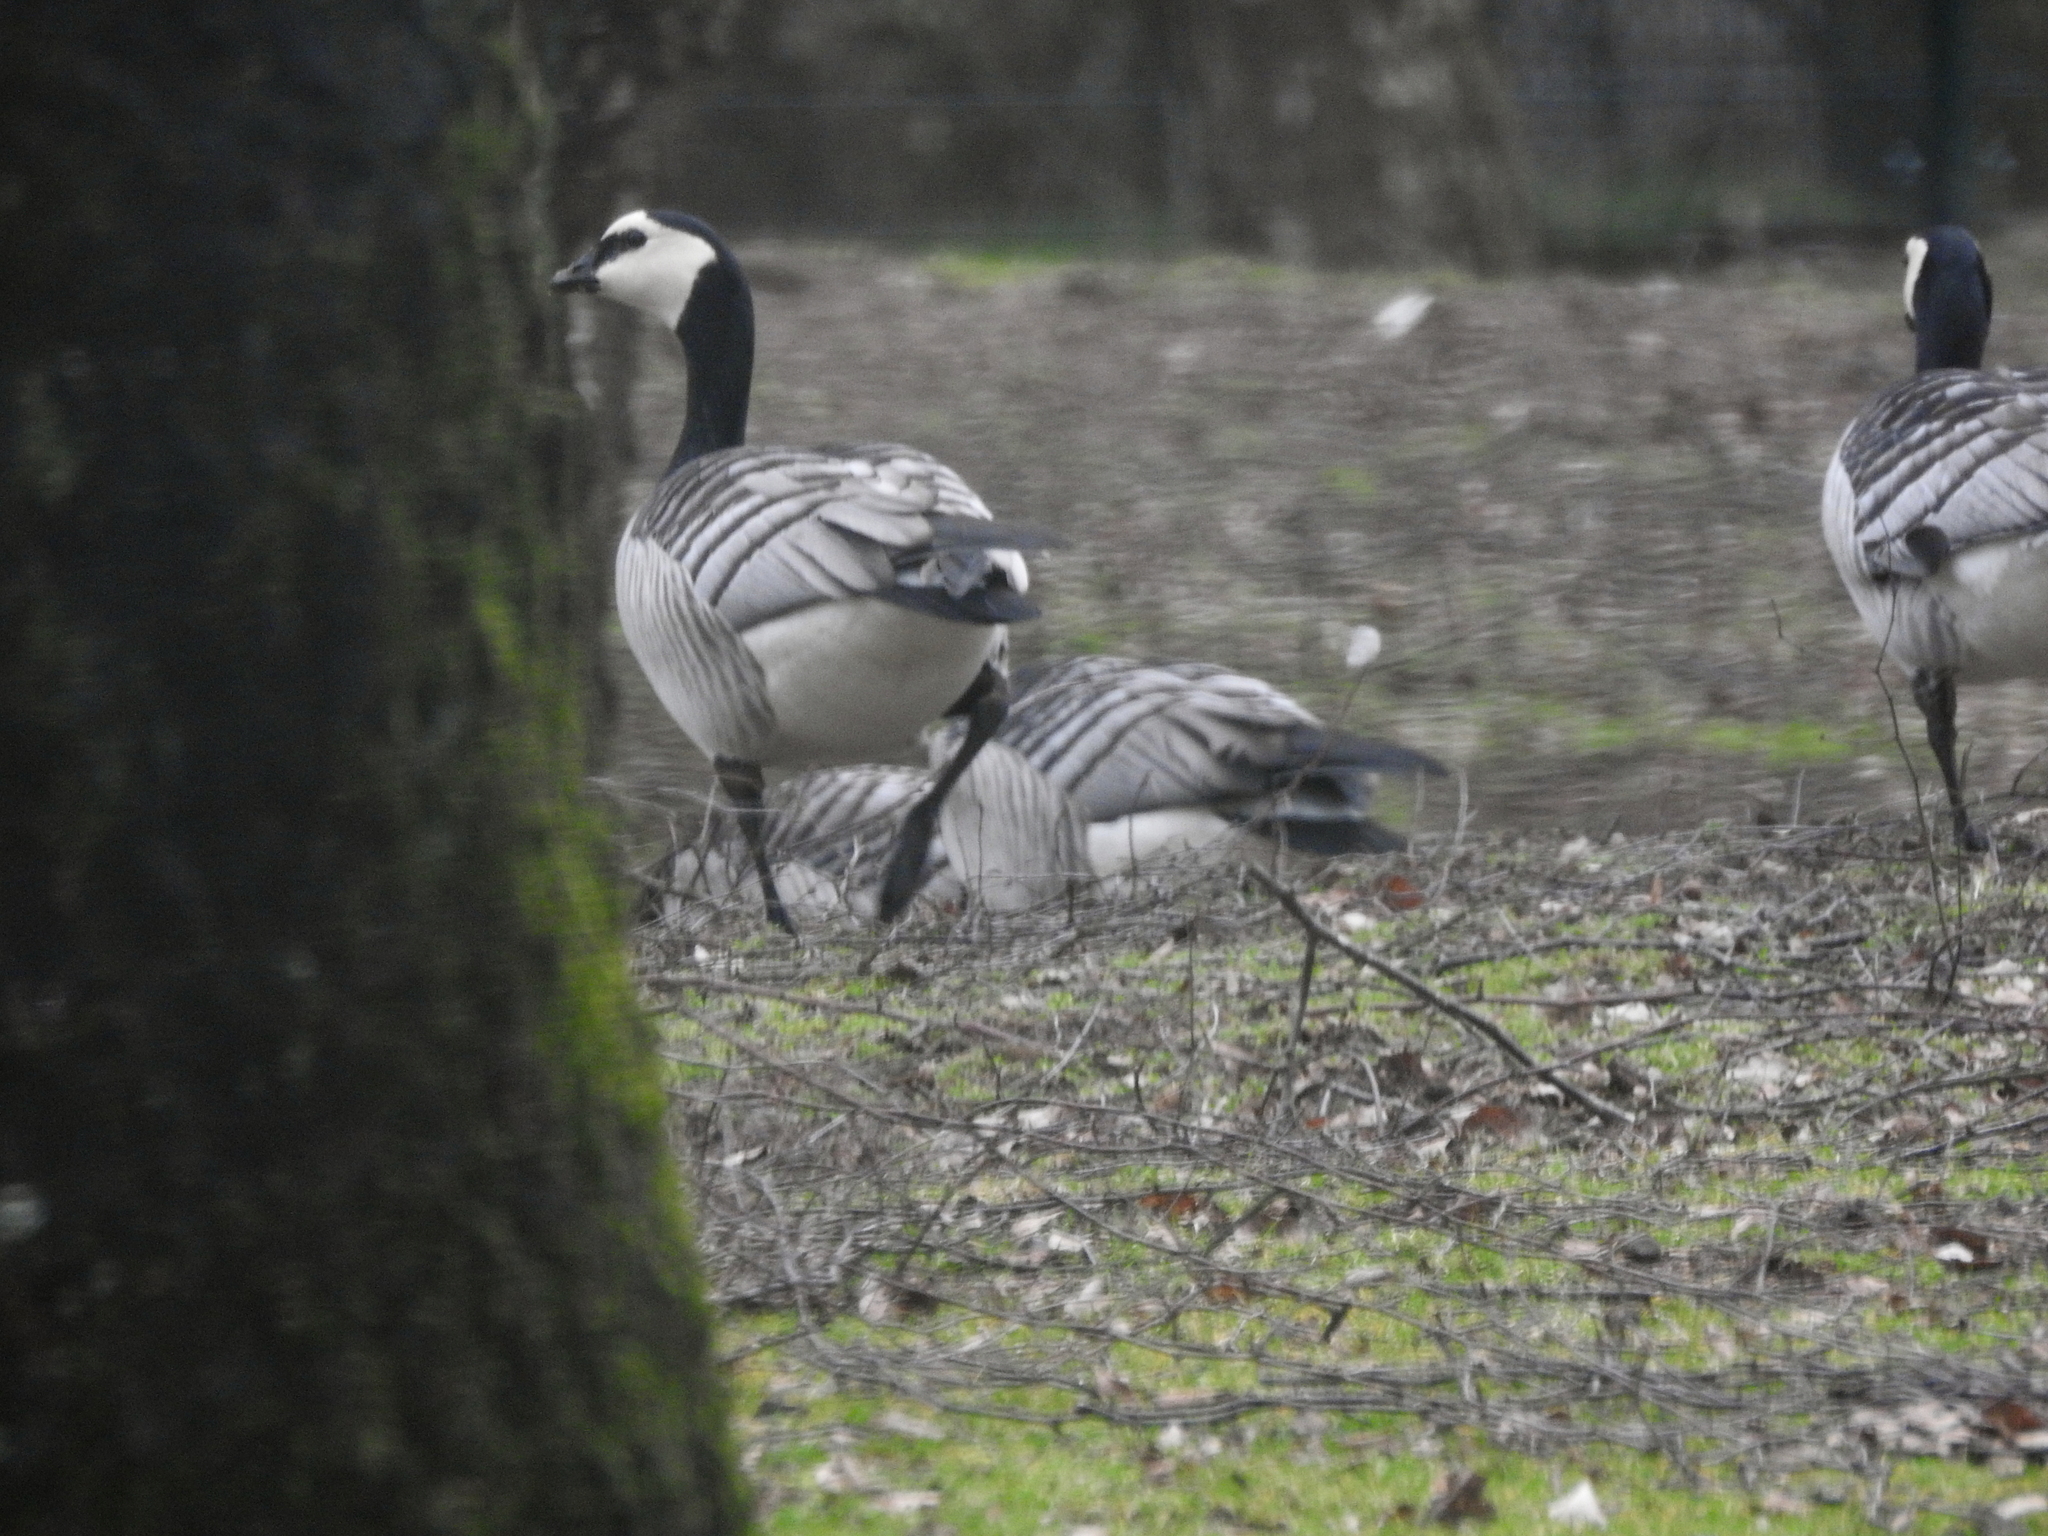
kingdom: Animalia
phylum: Chordata
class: Aves
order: Anseriformes
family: Anatidae
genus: Branta
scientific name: Branta leucopsis
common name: Barnacle goose
